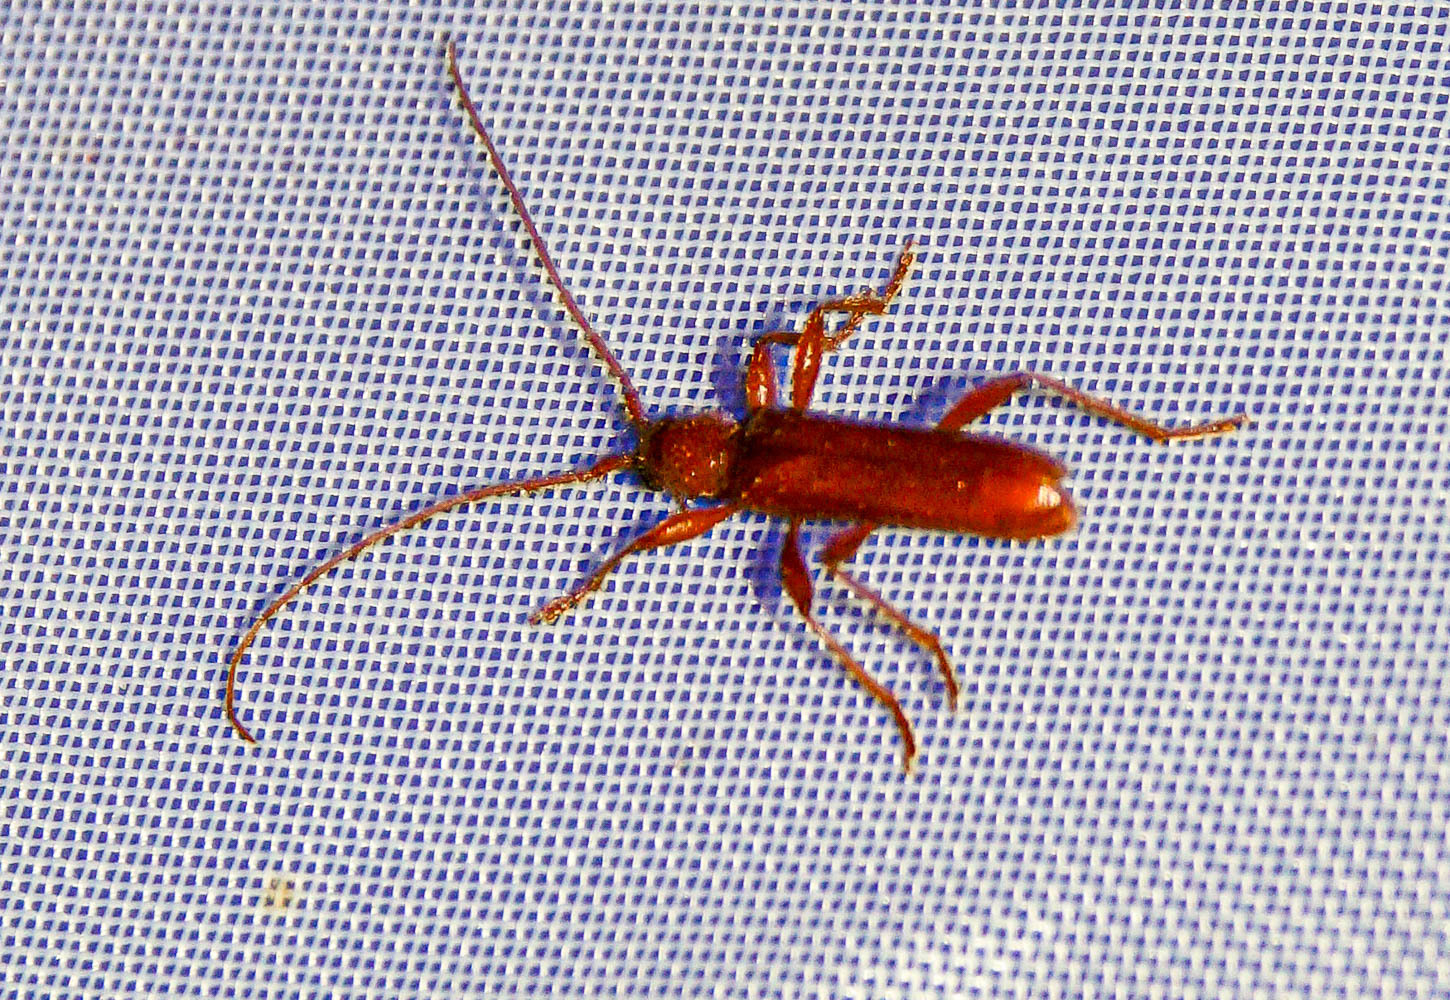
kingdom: Animalia
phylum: Arthropoda
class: Insecta
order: Coleoptera
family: Cerambycidae
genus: Axinopalpis
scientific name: Axinopalpis gracilis
